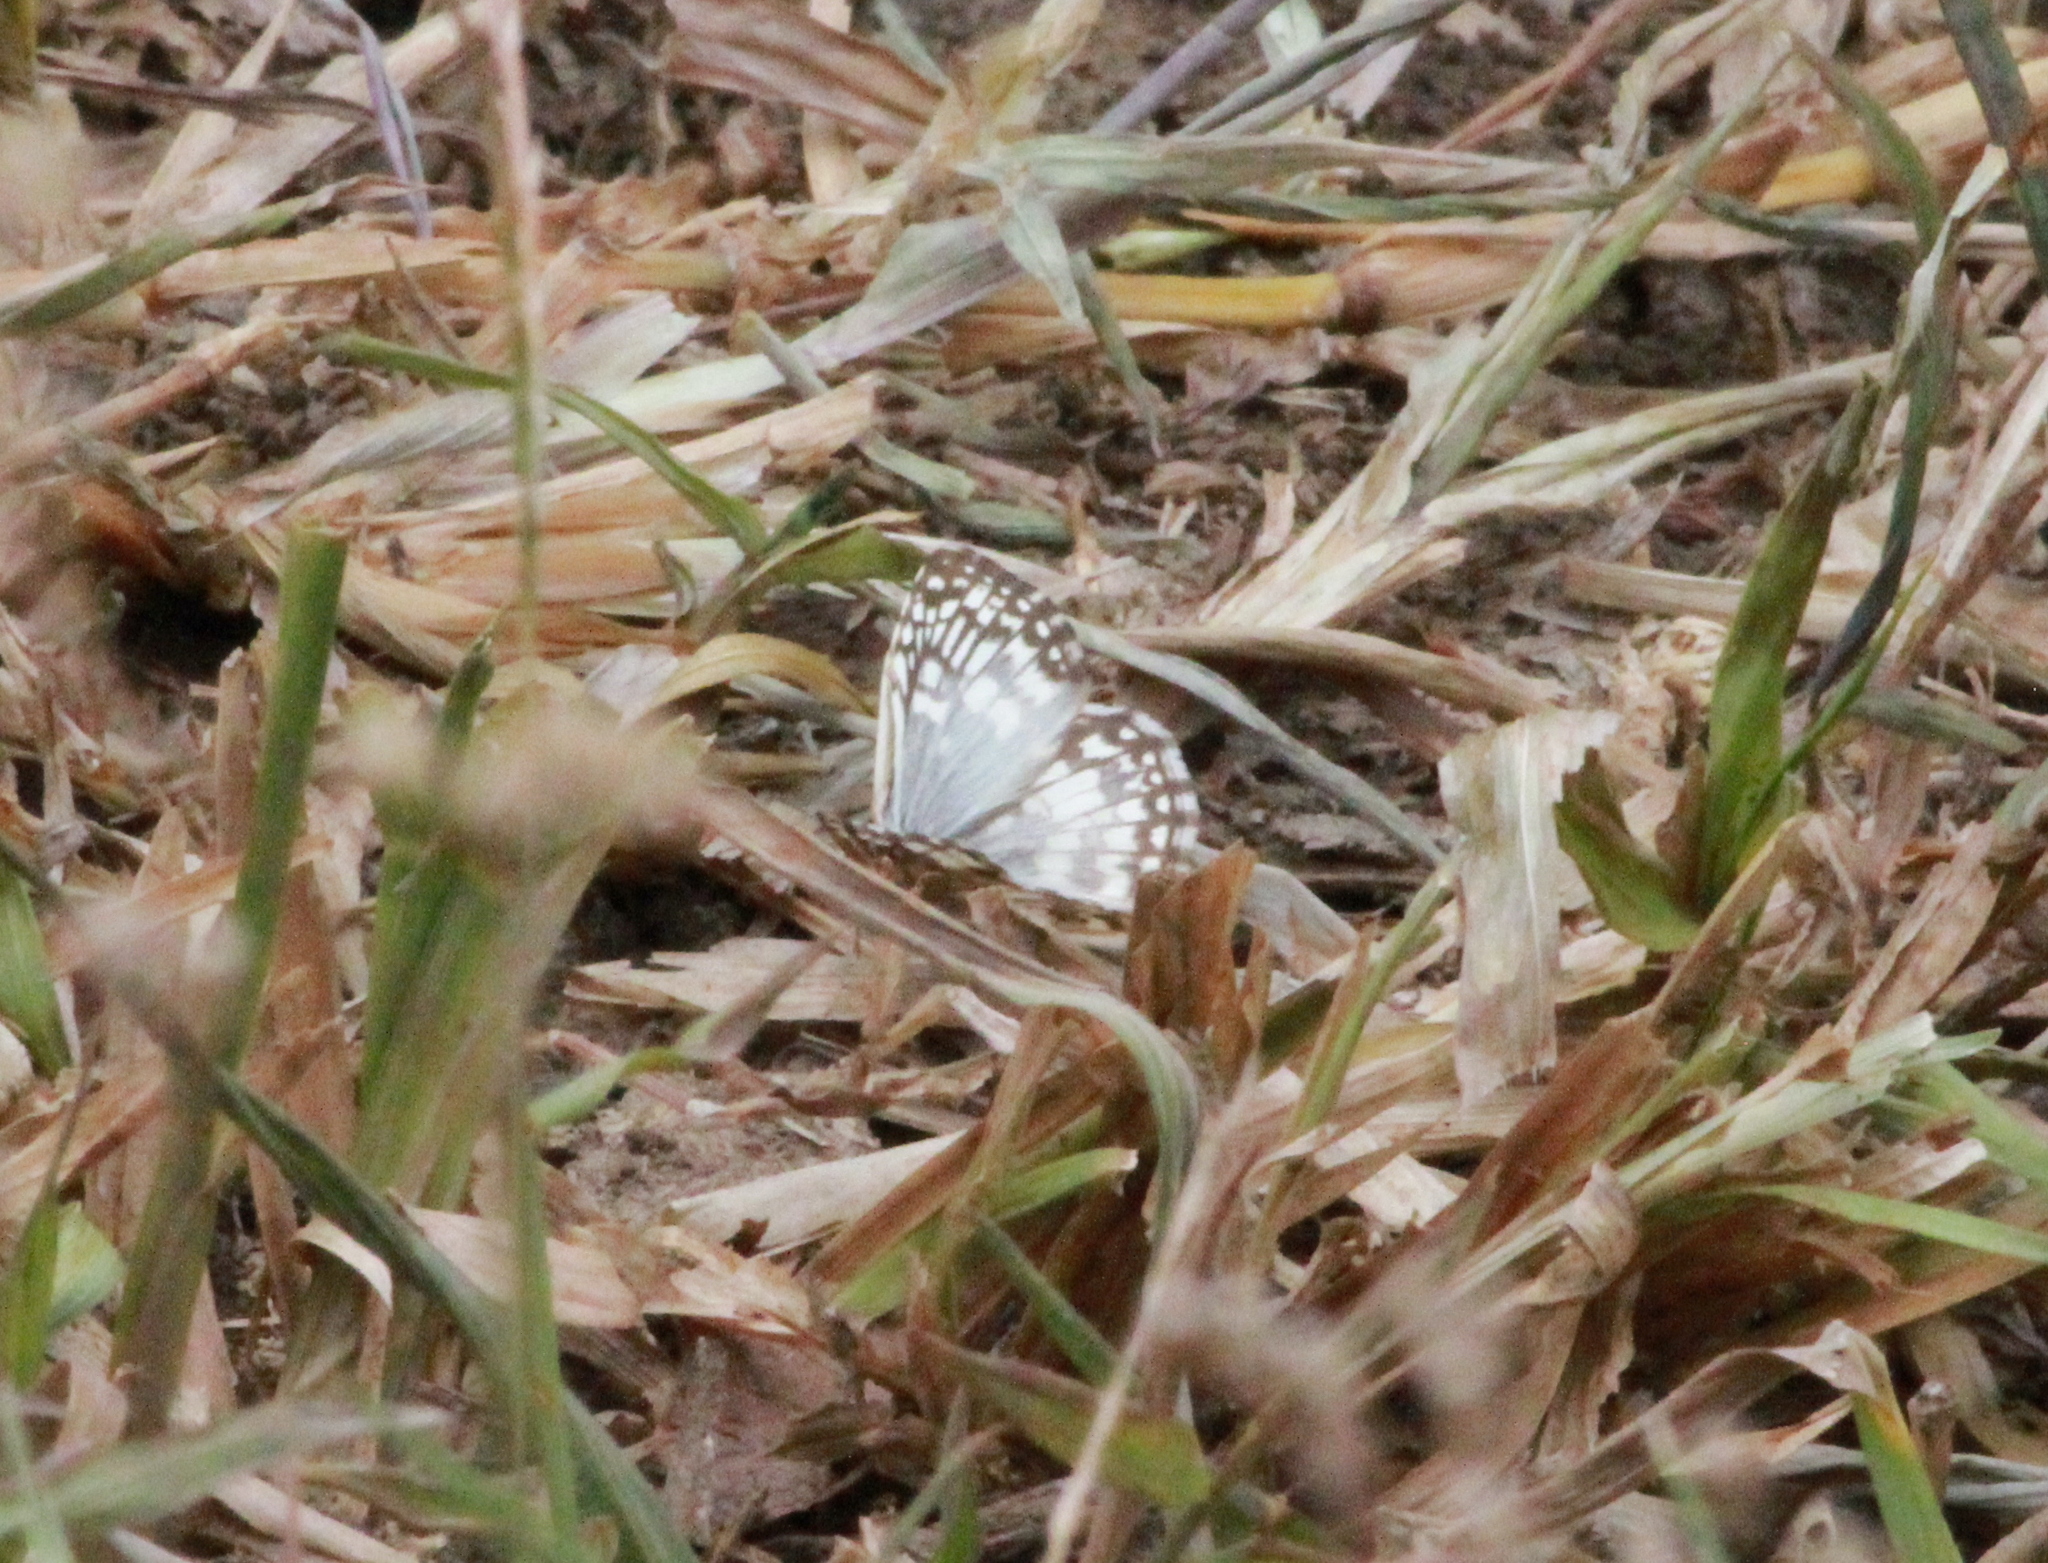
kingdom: Animalia
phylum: Arthropoda
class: Insecta
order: Lepidoptera
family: Hesperiidae
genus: Pyrgus
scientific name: Pyrgus oileus
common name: Tropical checkered-skipper
